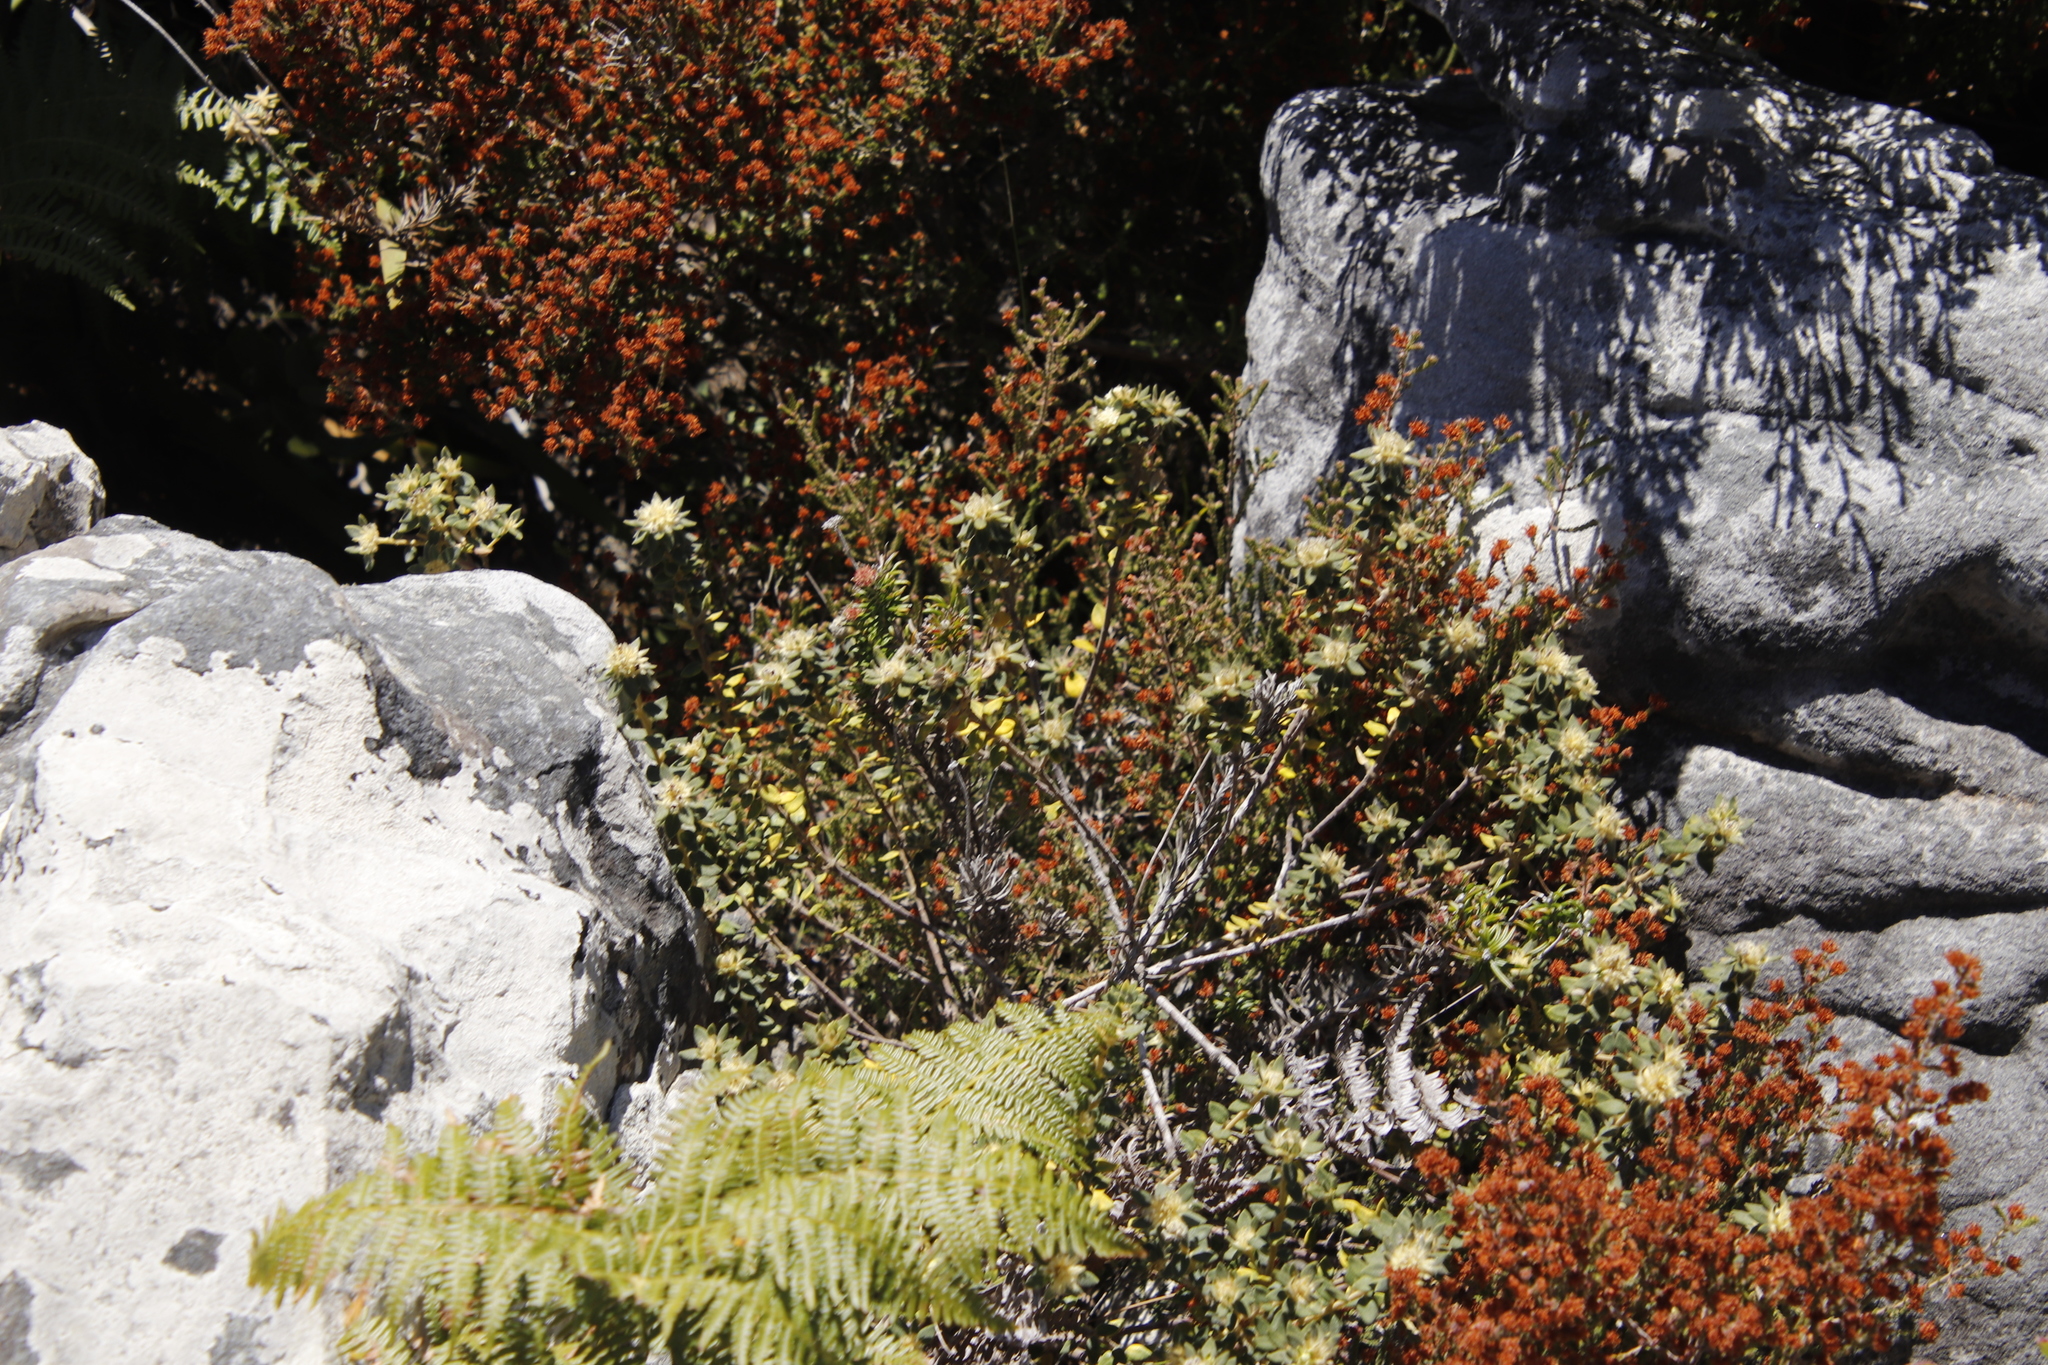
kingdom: Plantae
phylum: Tracheophyta
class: Magnoliopsida
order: Rosales
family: Rhamnaceae
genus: Phylica
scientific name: Phylica dioica
